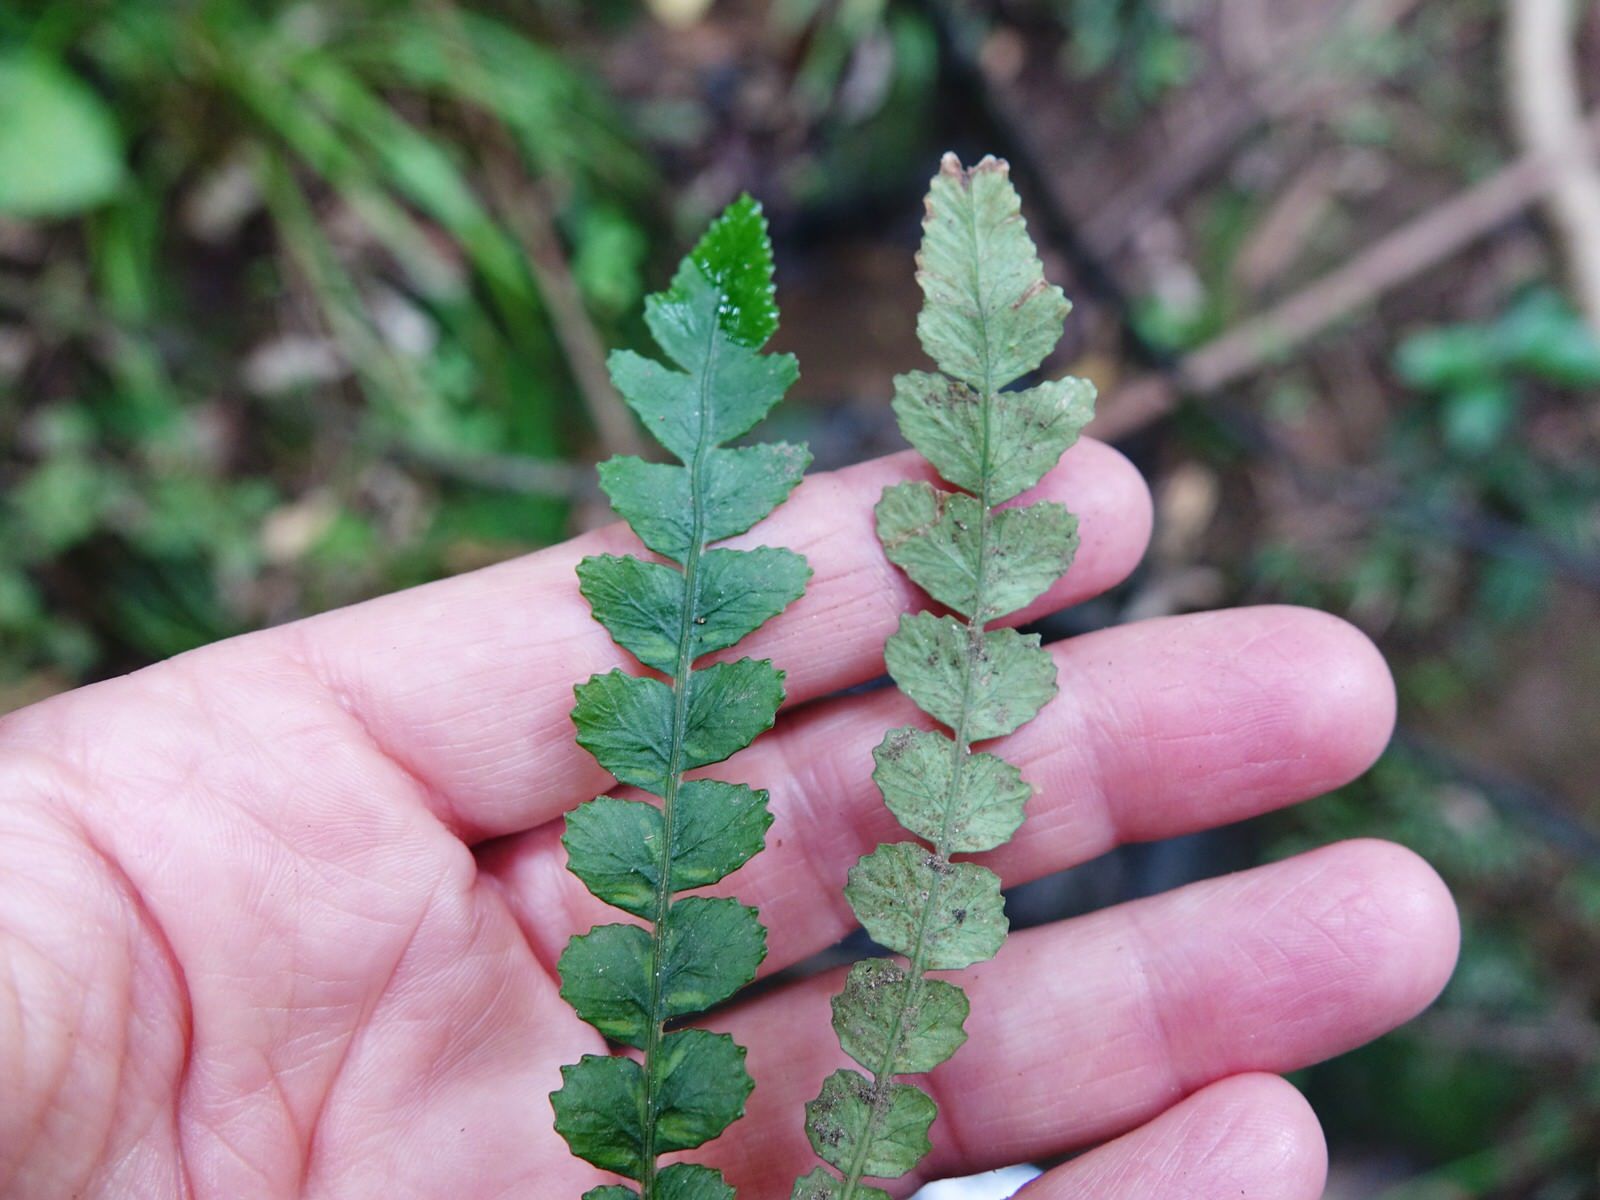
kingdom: Plantae
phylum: Tracheophyta
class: Polypodiopsida
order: Polypodiales
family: Blechnaceae
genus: Austroblechnum
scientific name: Austroblechnum membranaceum
